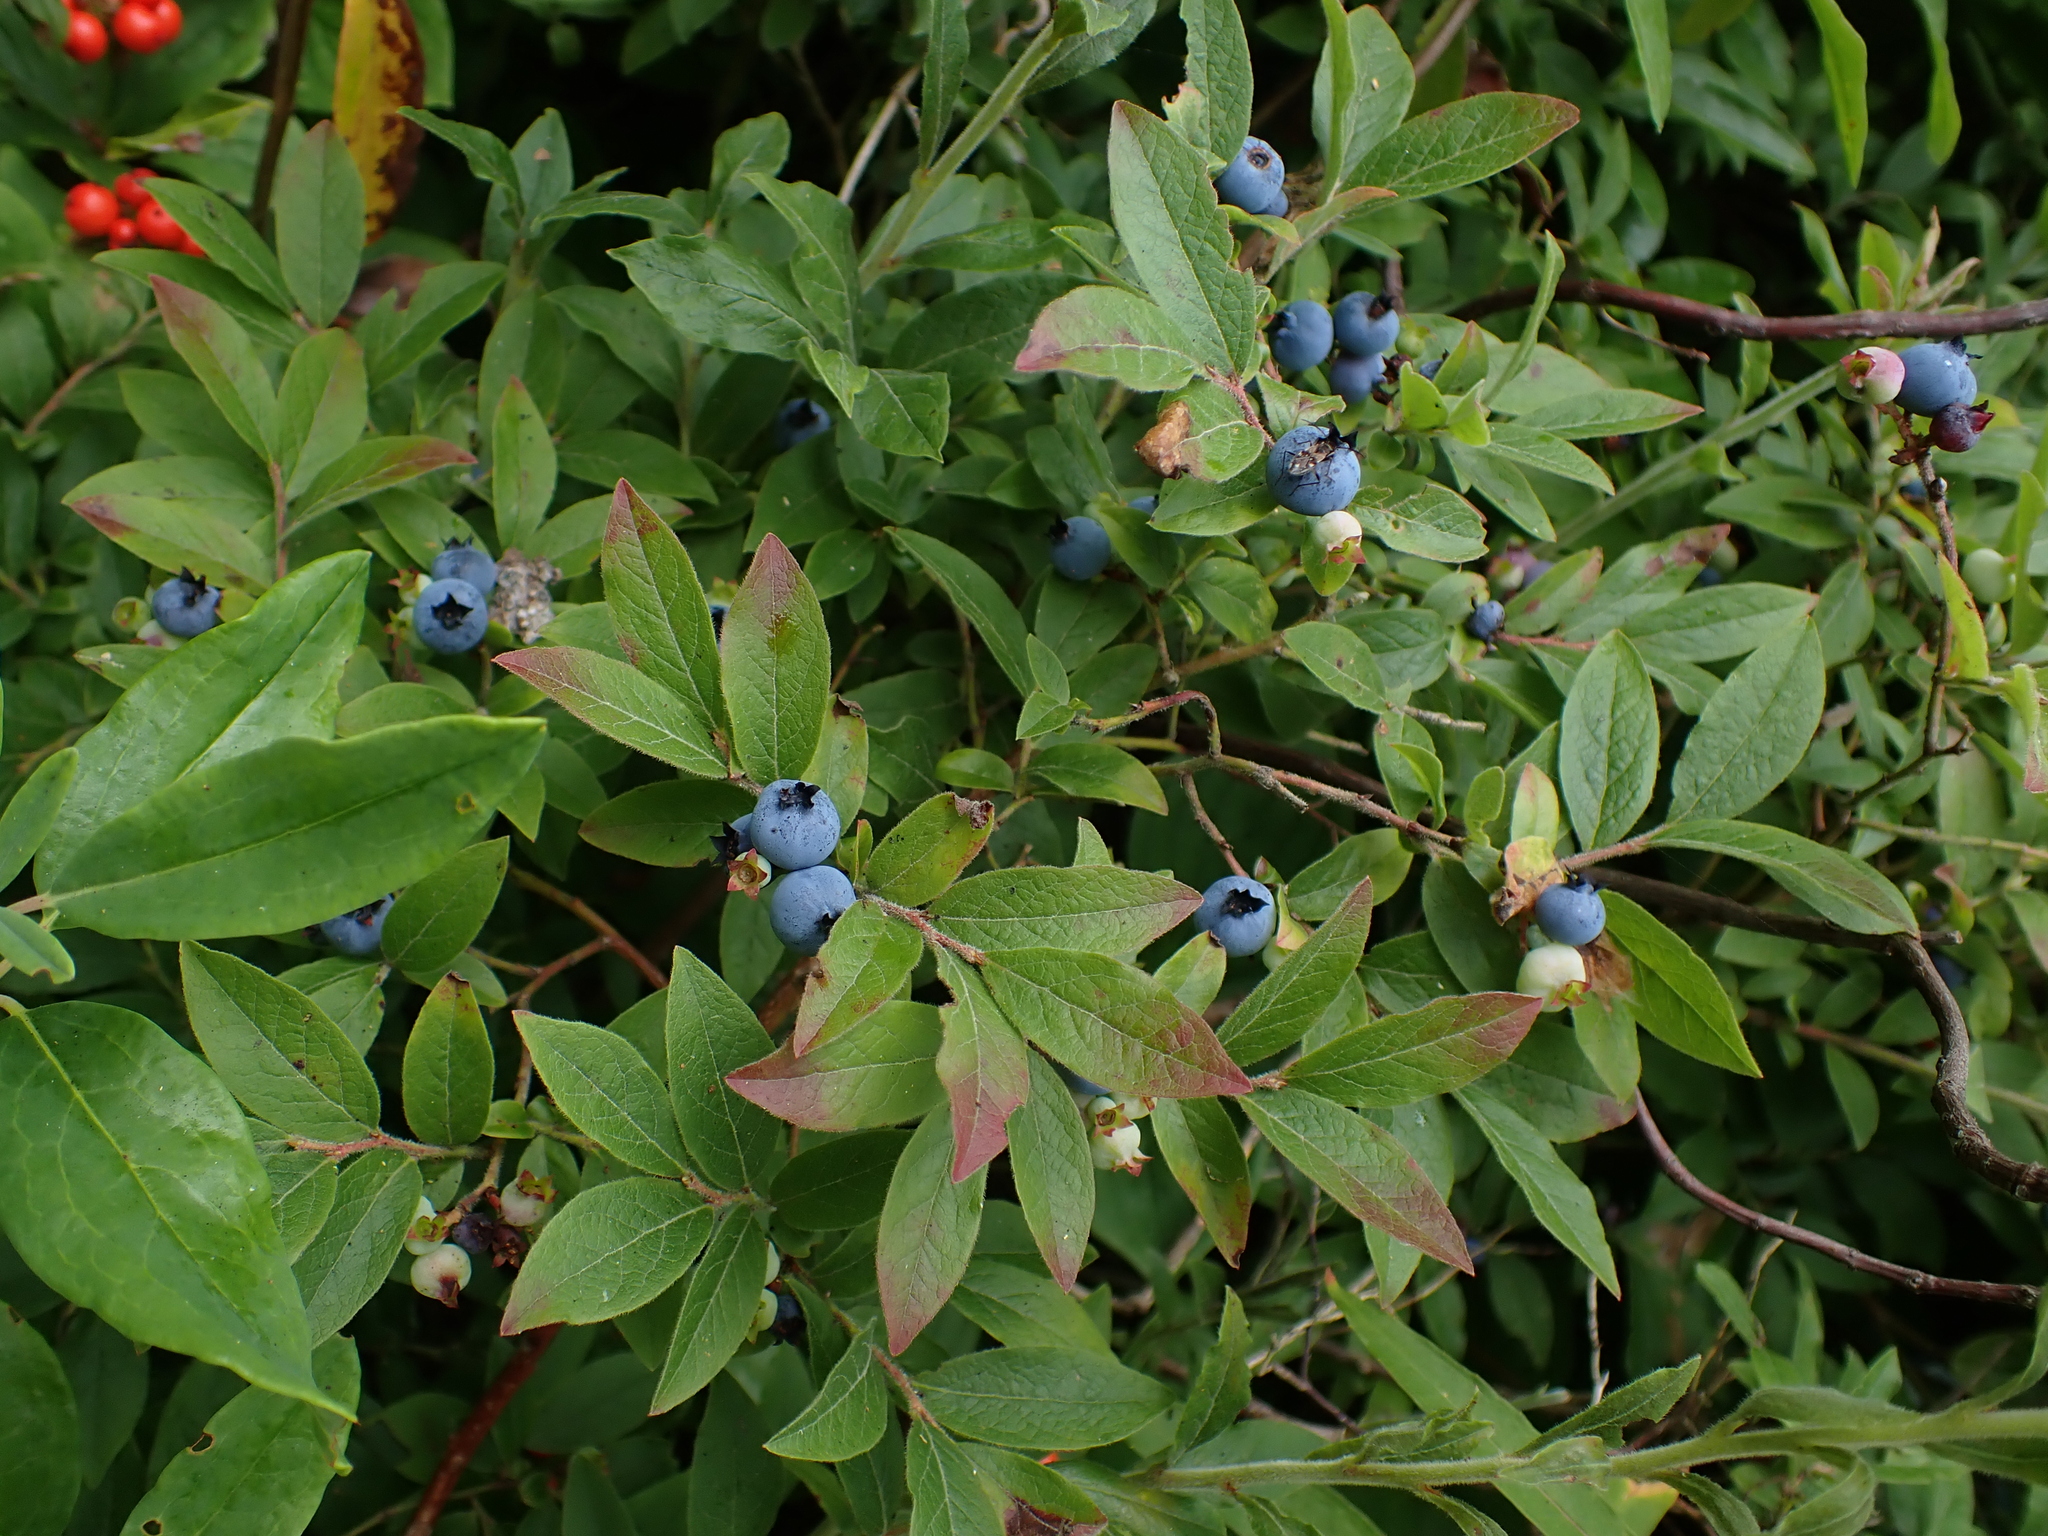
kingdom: Plantae
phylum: Tracheophyta
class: Magnoliopsida
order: Ericales
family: Ericaceae
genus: Vaccinium
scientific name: Vaccinium myrtilloides
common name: Canada blueberry
